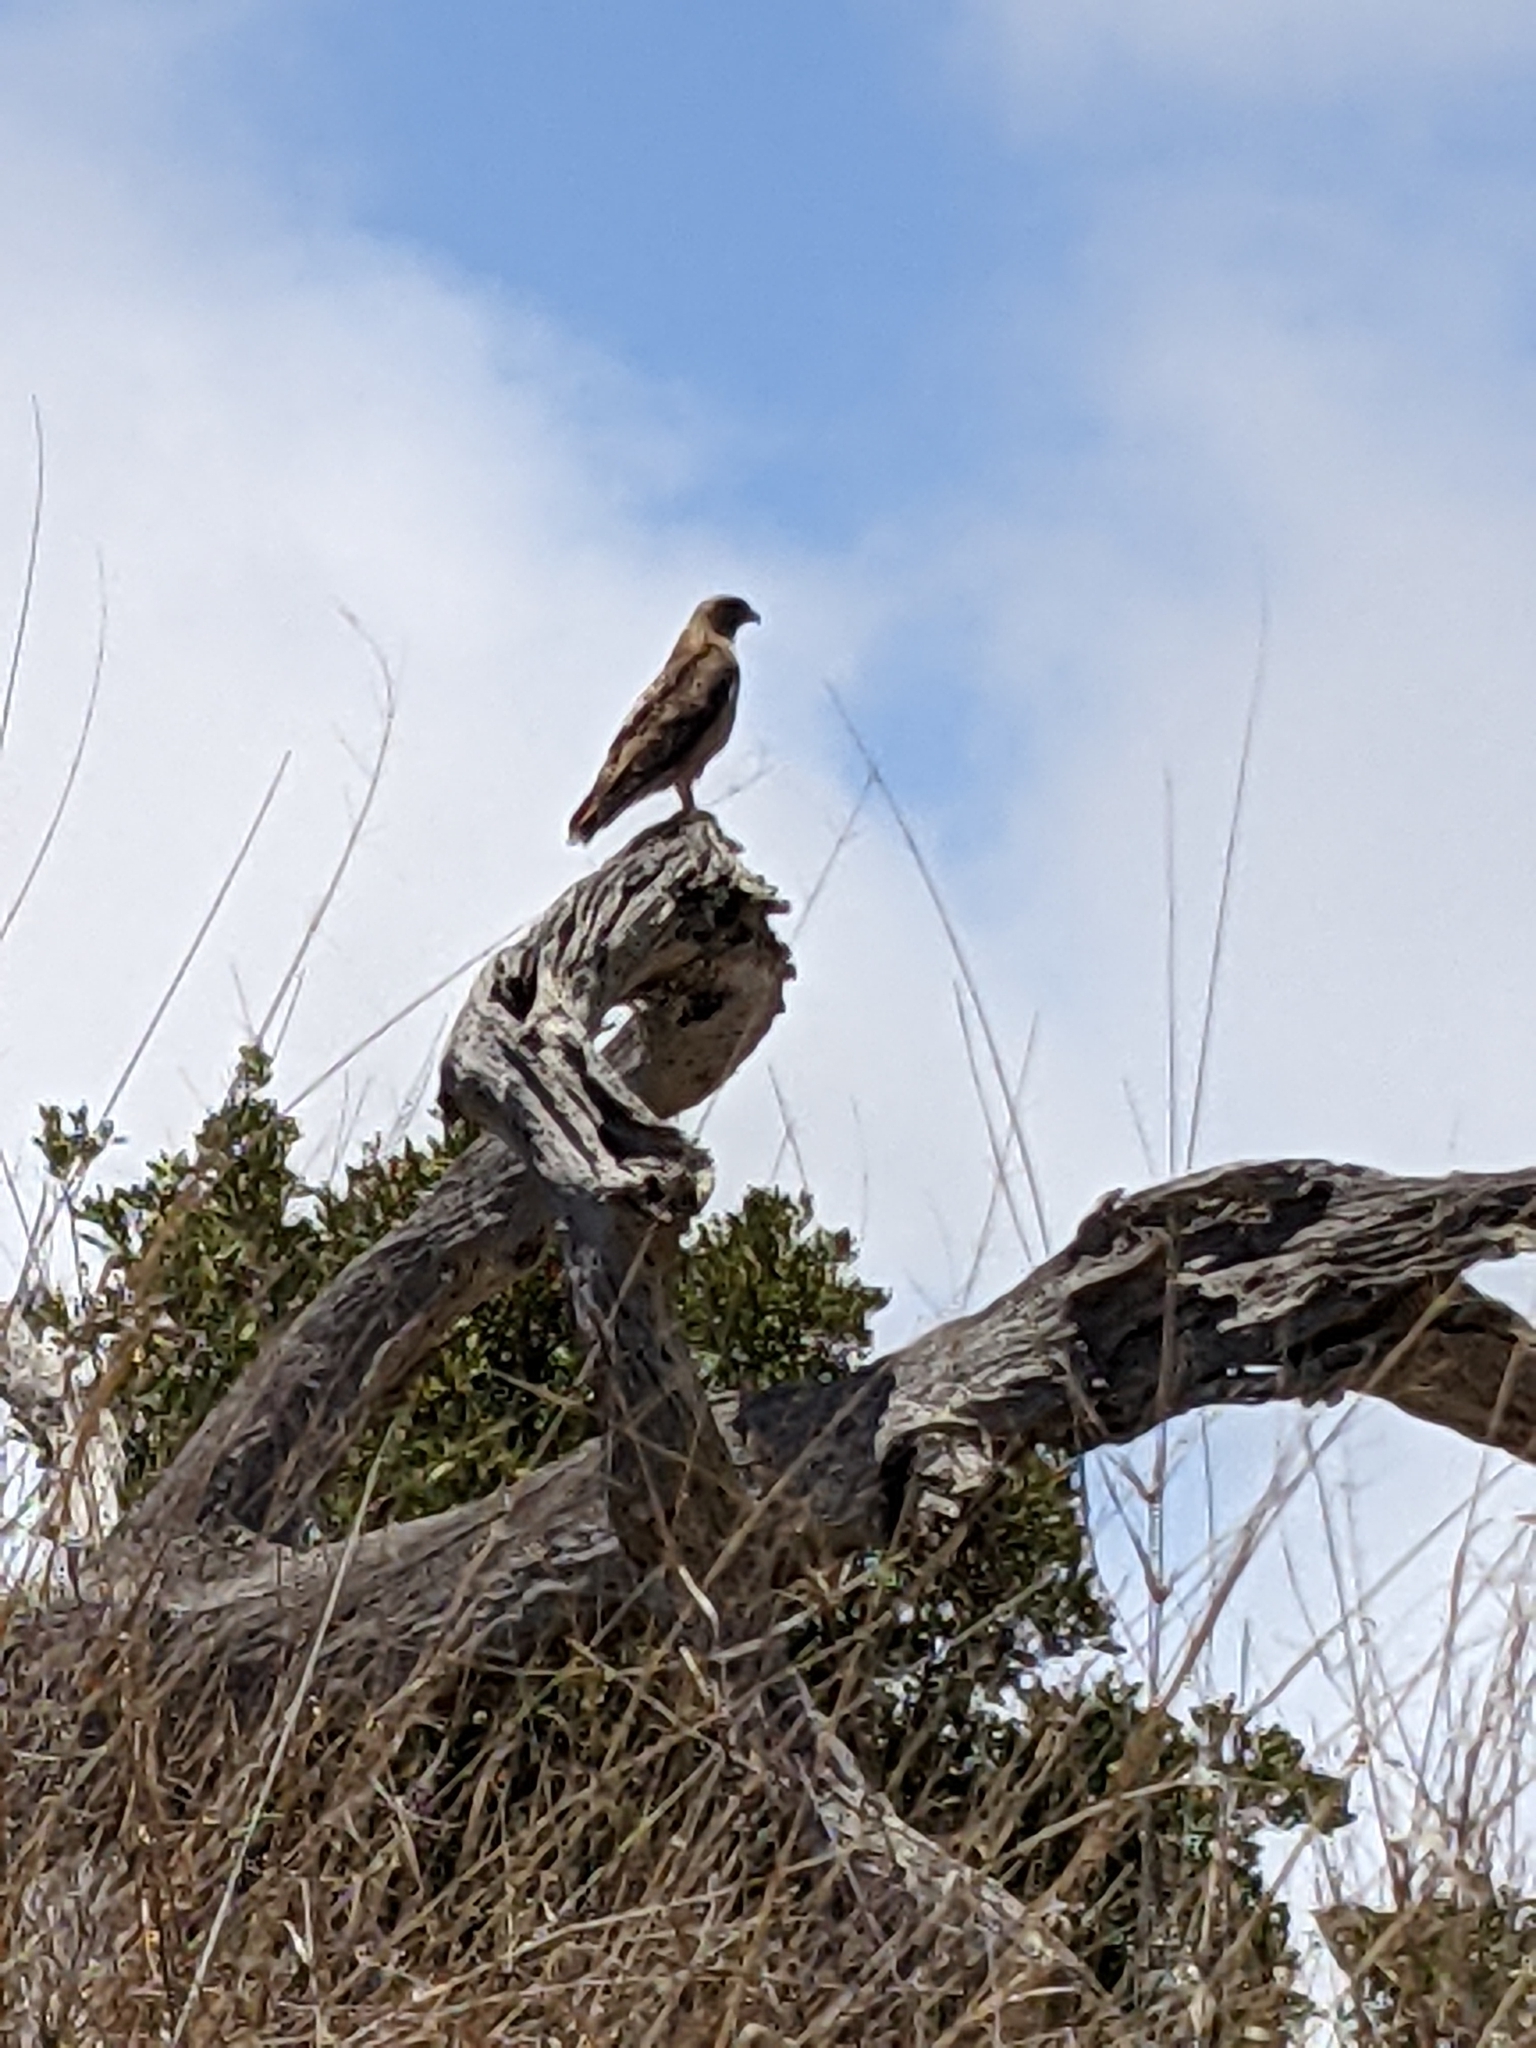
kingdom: Animalia
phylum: Chordata
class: Aves
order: Accipitriformes
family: Accipitridae
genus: Buteo
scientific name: Buteo jamaicensis
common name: Red-tailed hawk
